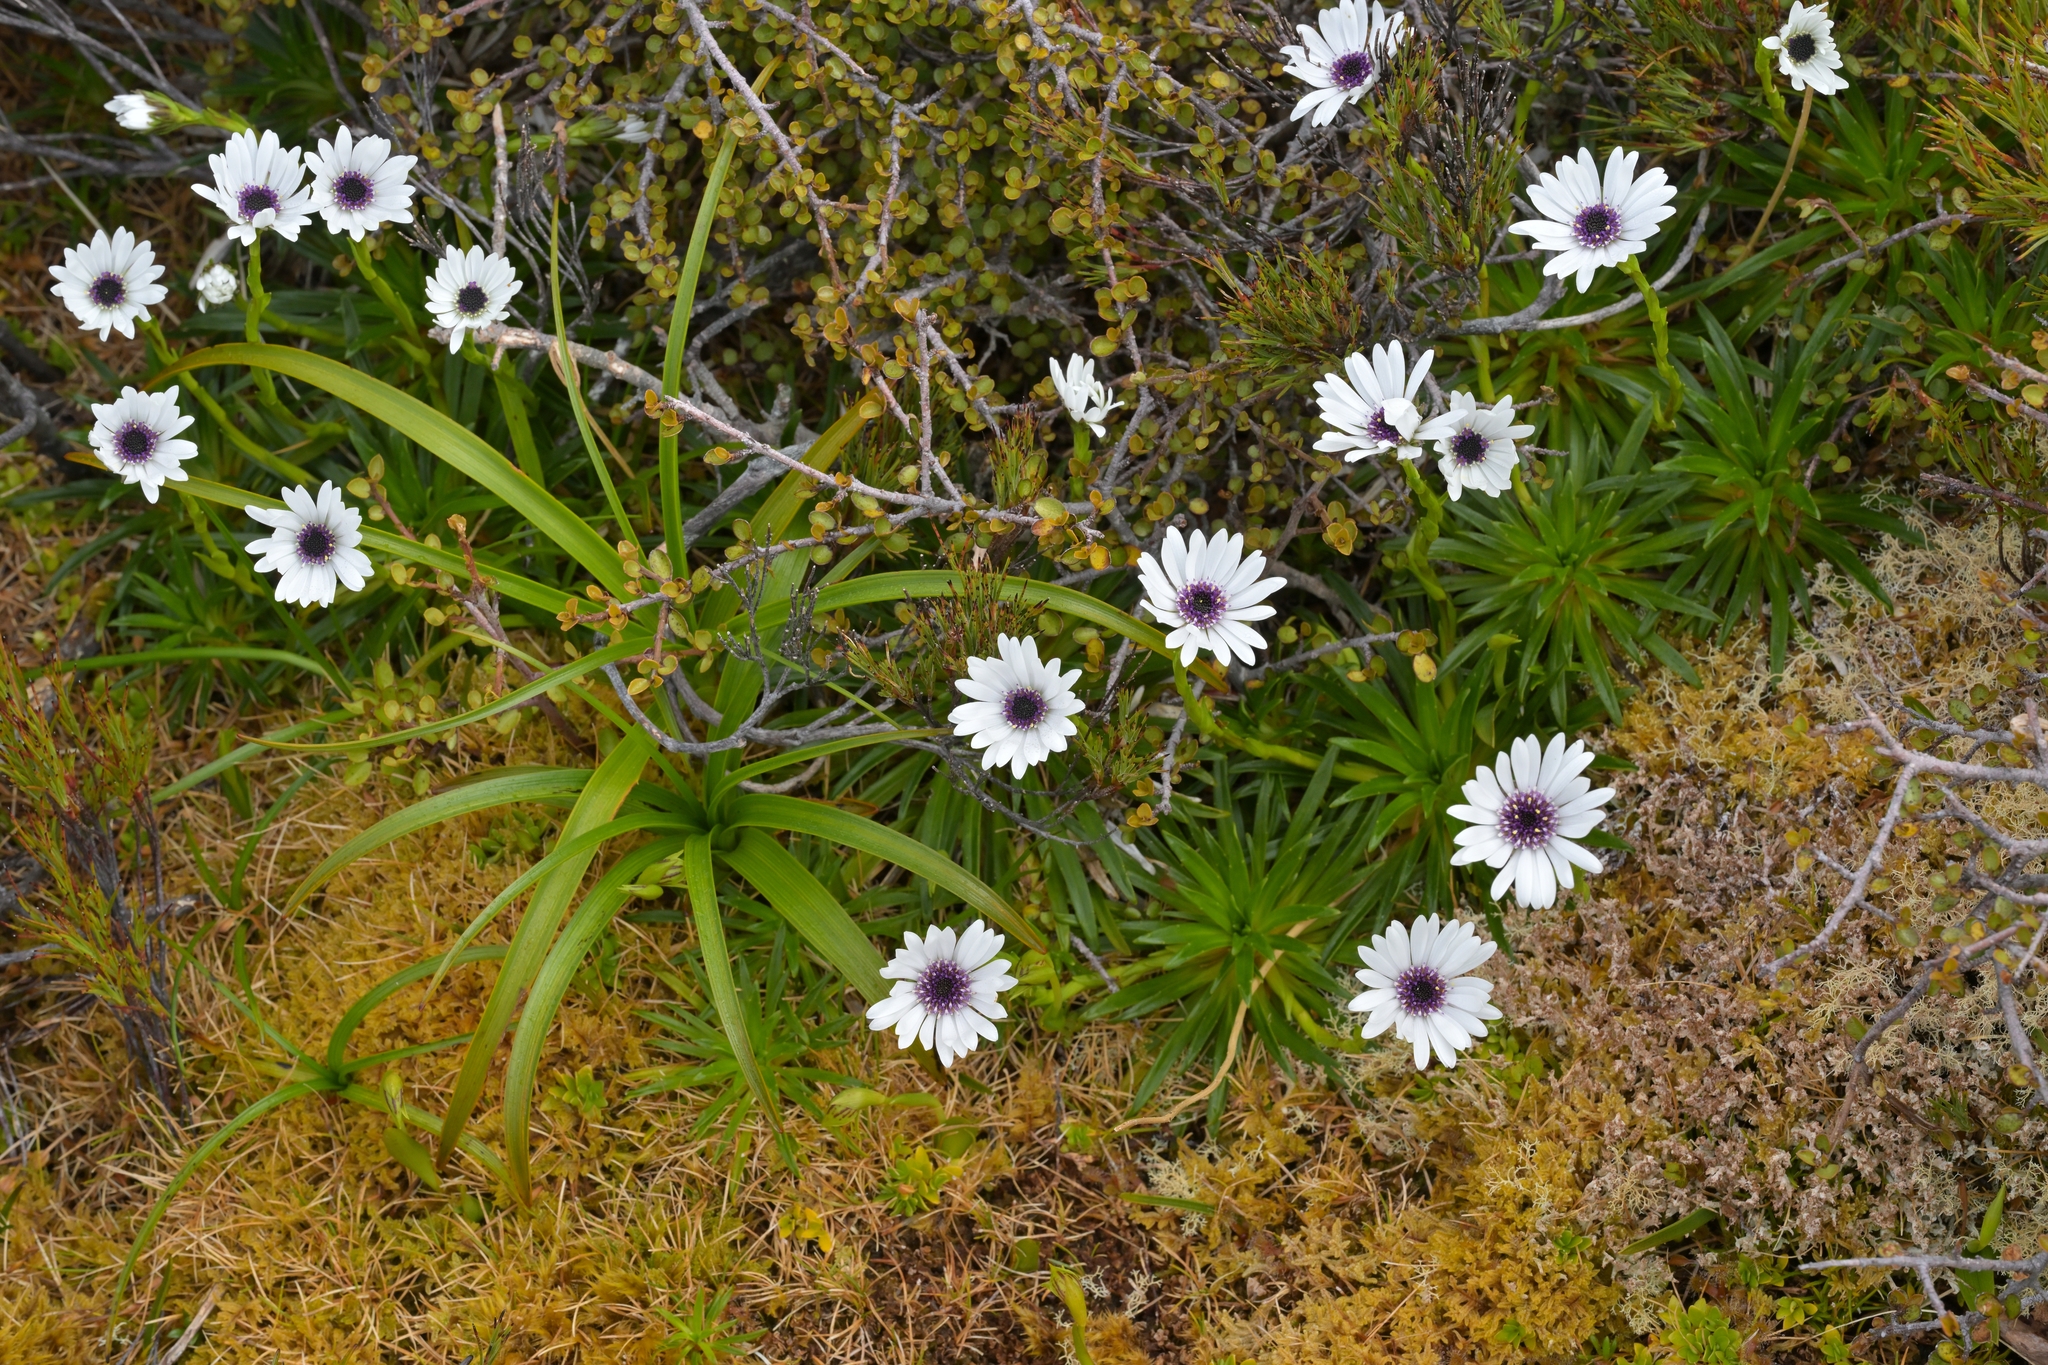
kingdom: Plantae
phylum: Tracheophyta
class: Magnoliopsida
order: Asterales
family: Asteraceae
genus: Damnamenia
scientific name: Damnamenia vernicosa
